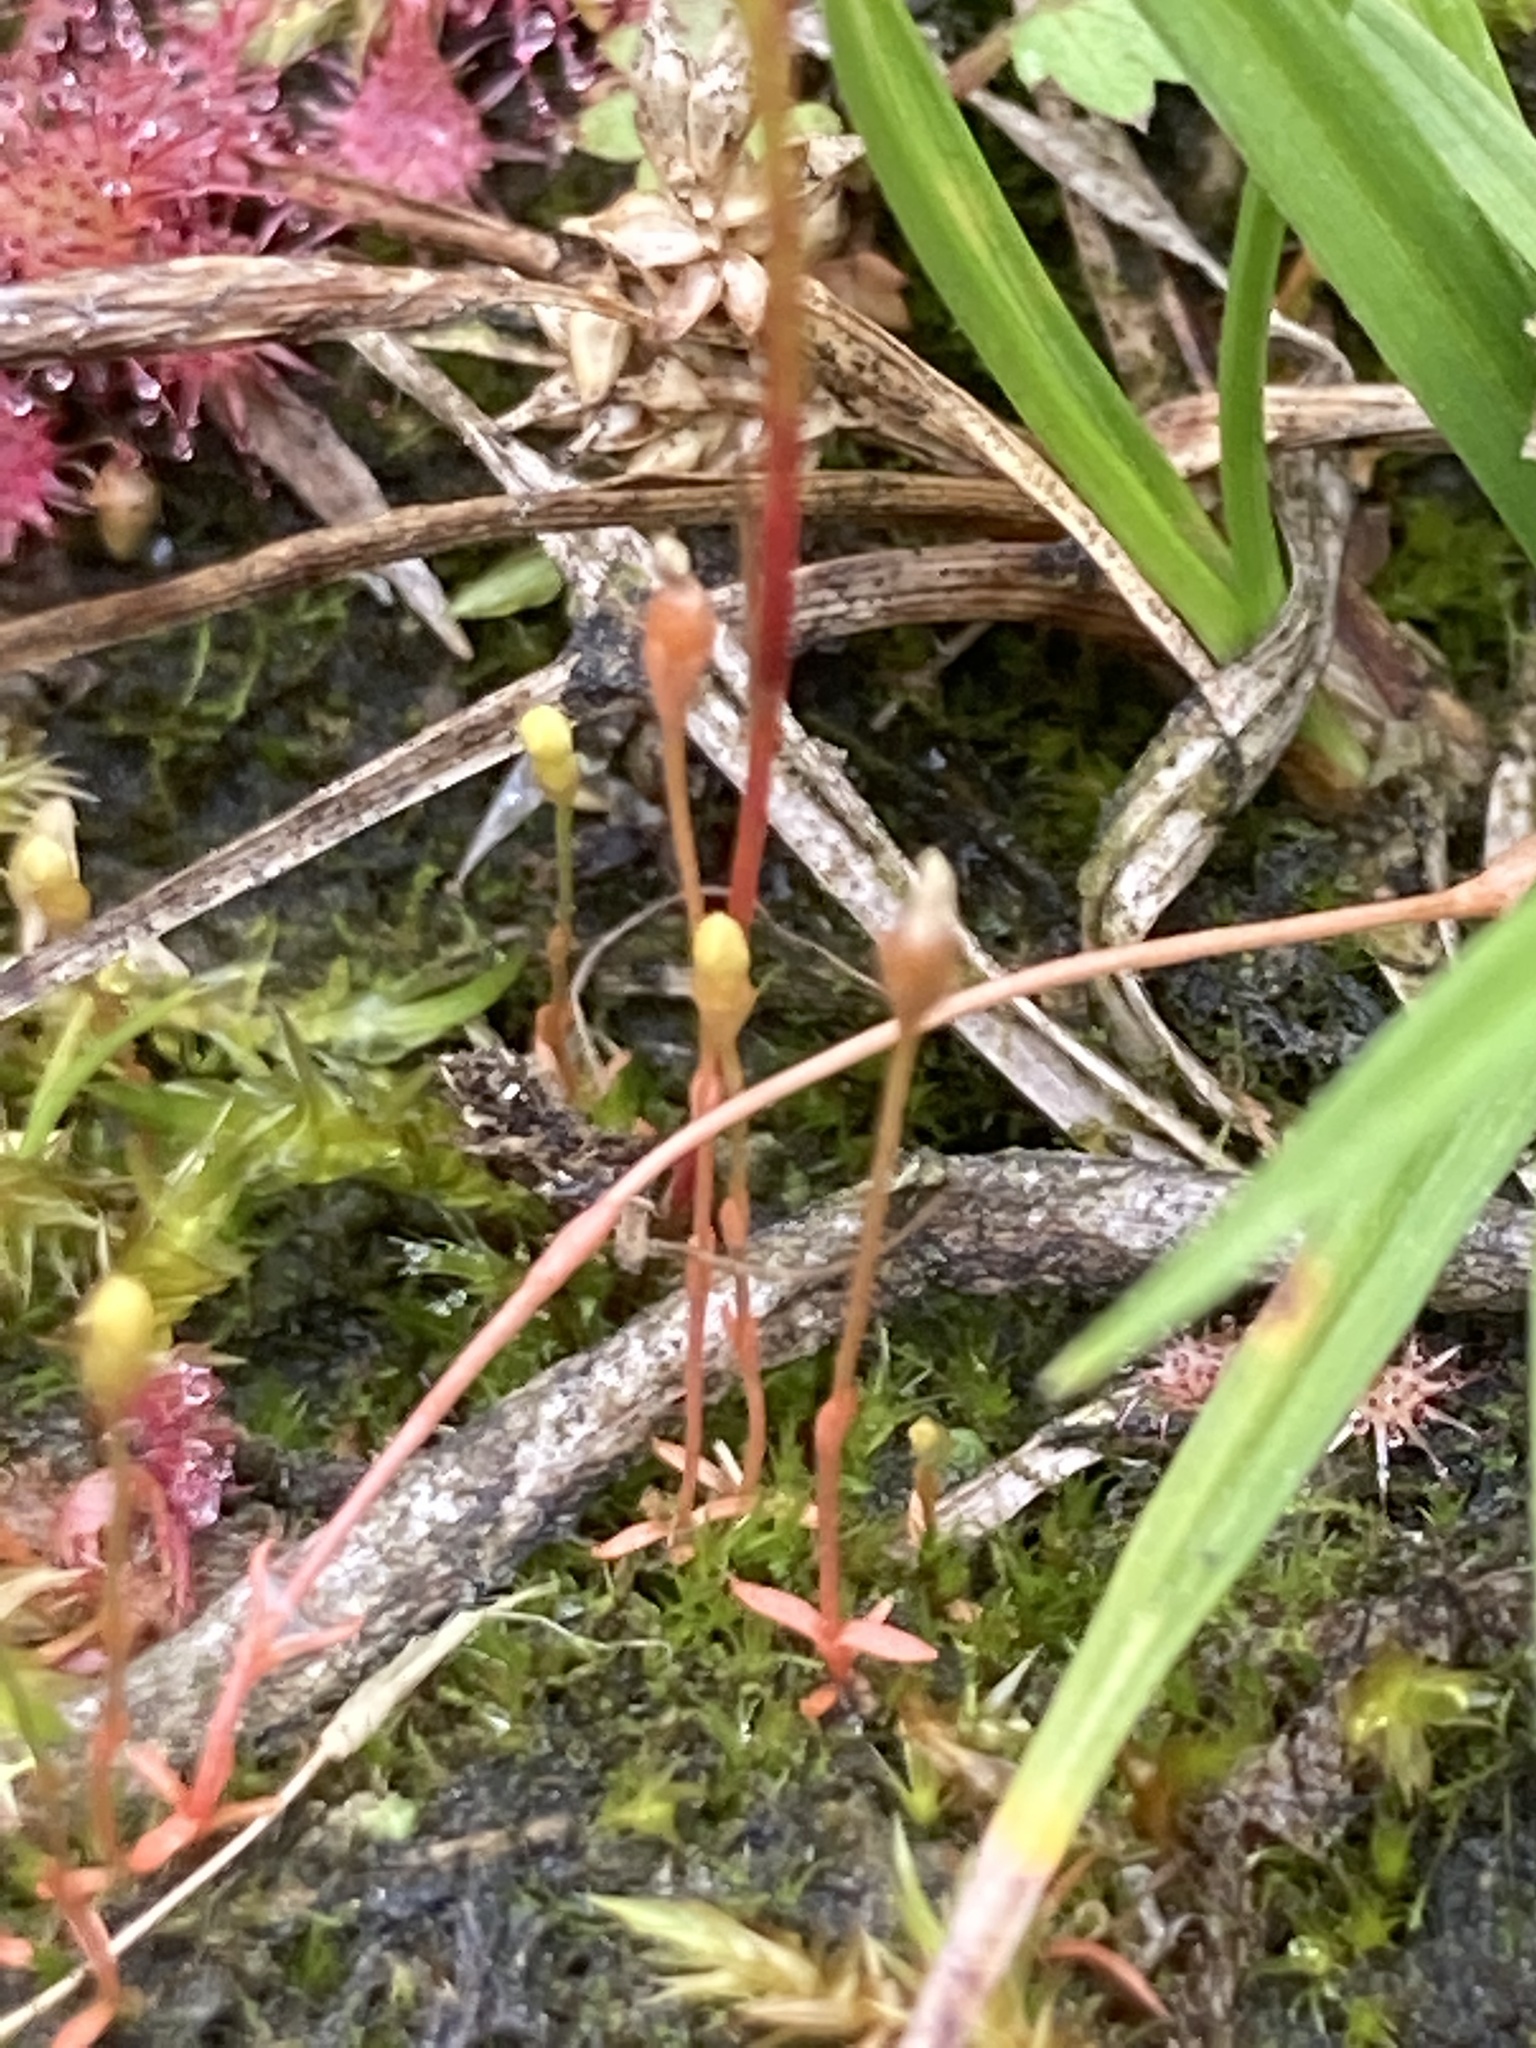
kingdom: Plantae
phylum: Tracheophyta
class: Magnoliopsida
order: Gentianales
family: Gentianaceae
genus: Cicendia
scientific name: Cicendia filiformis
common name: Yellow centaury
